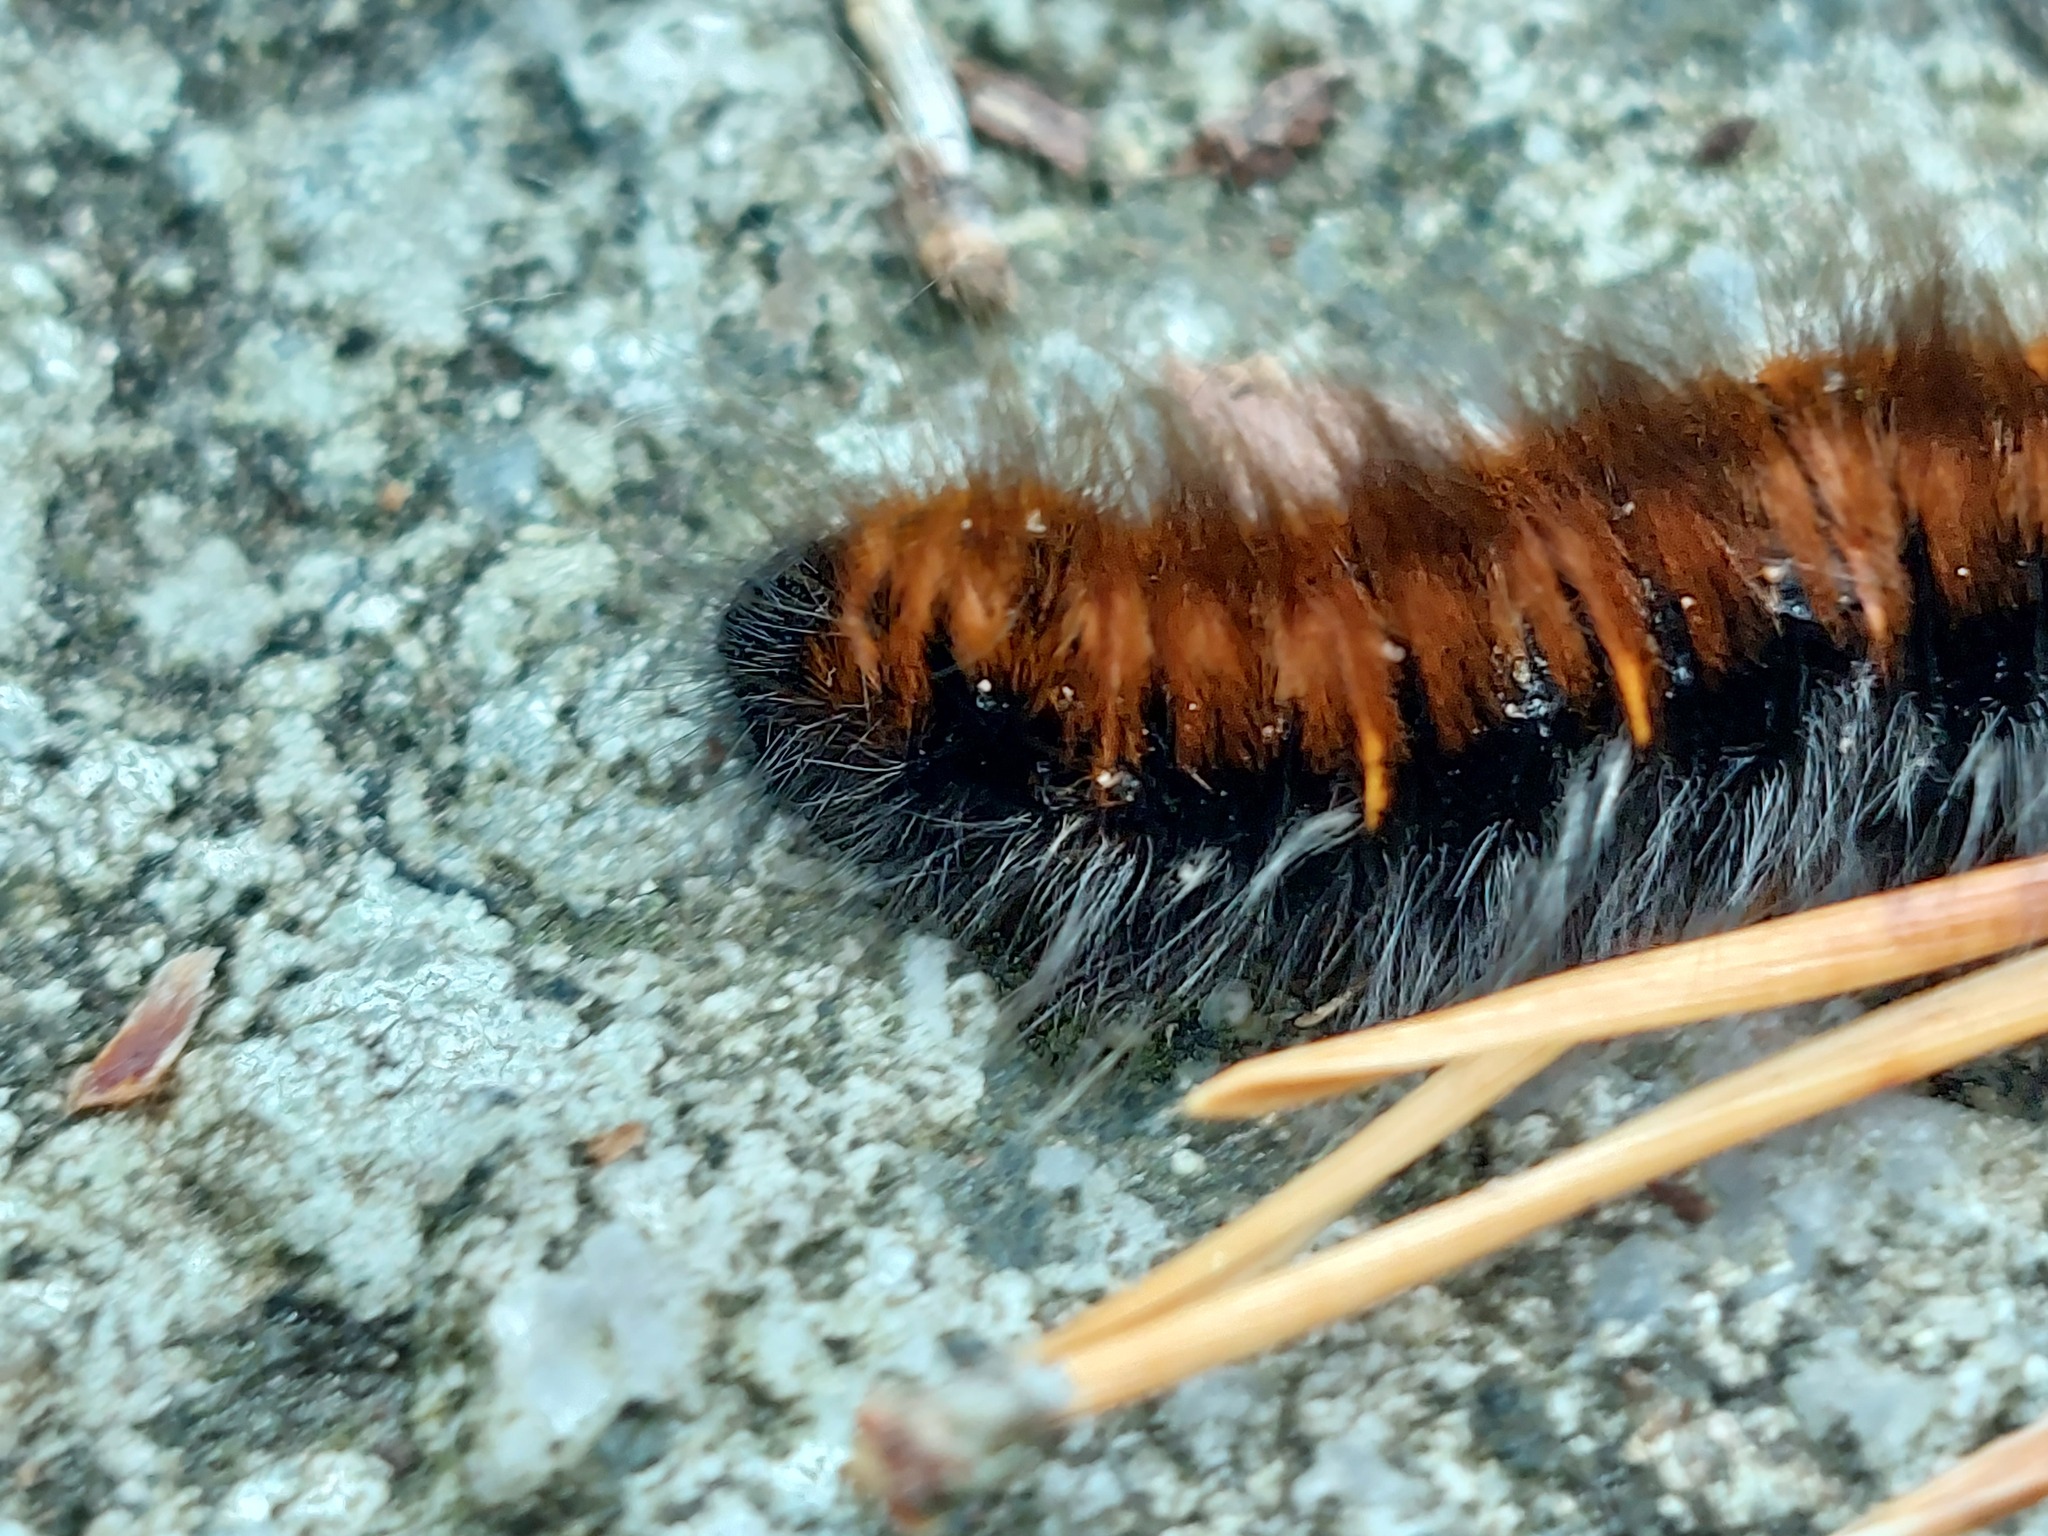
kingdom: Animalia
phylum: Arthropoda
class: Insecta
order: Lepidoptera
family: Lasiocampidae
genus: Macrothylacia
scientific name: Macrothylacia rubi
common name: Fox moth
